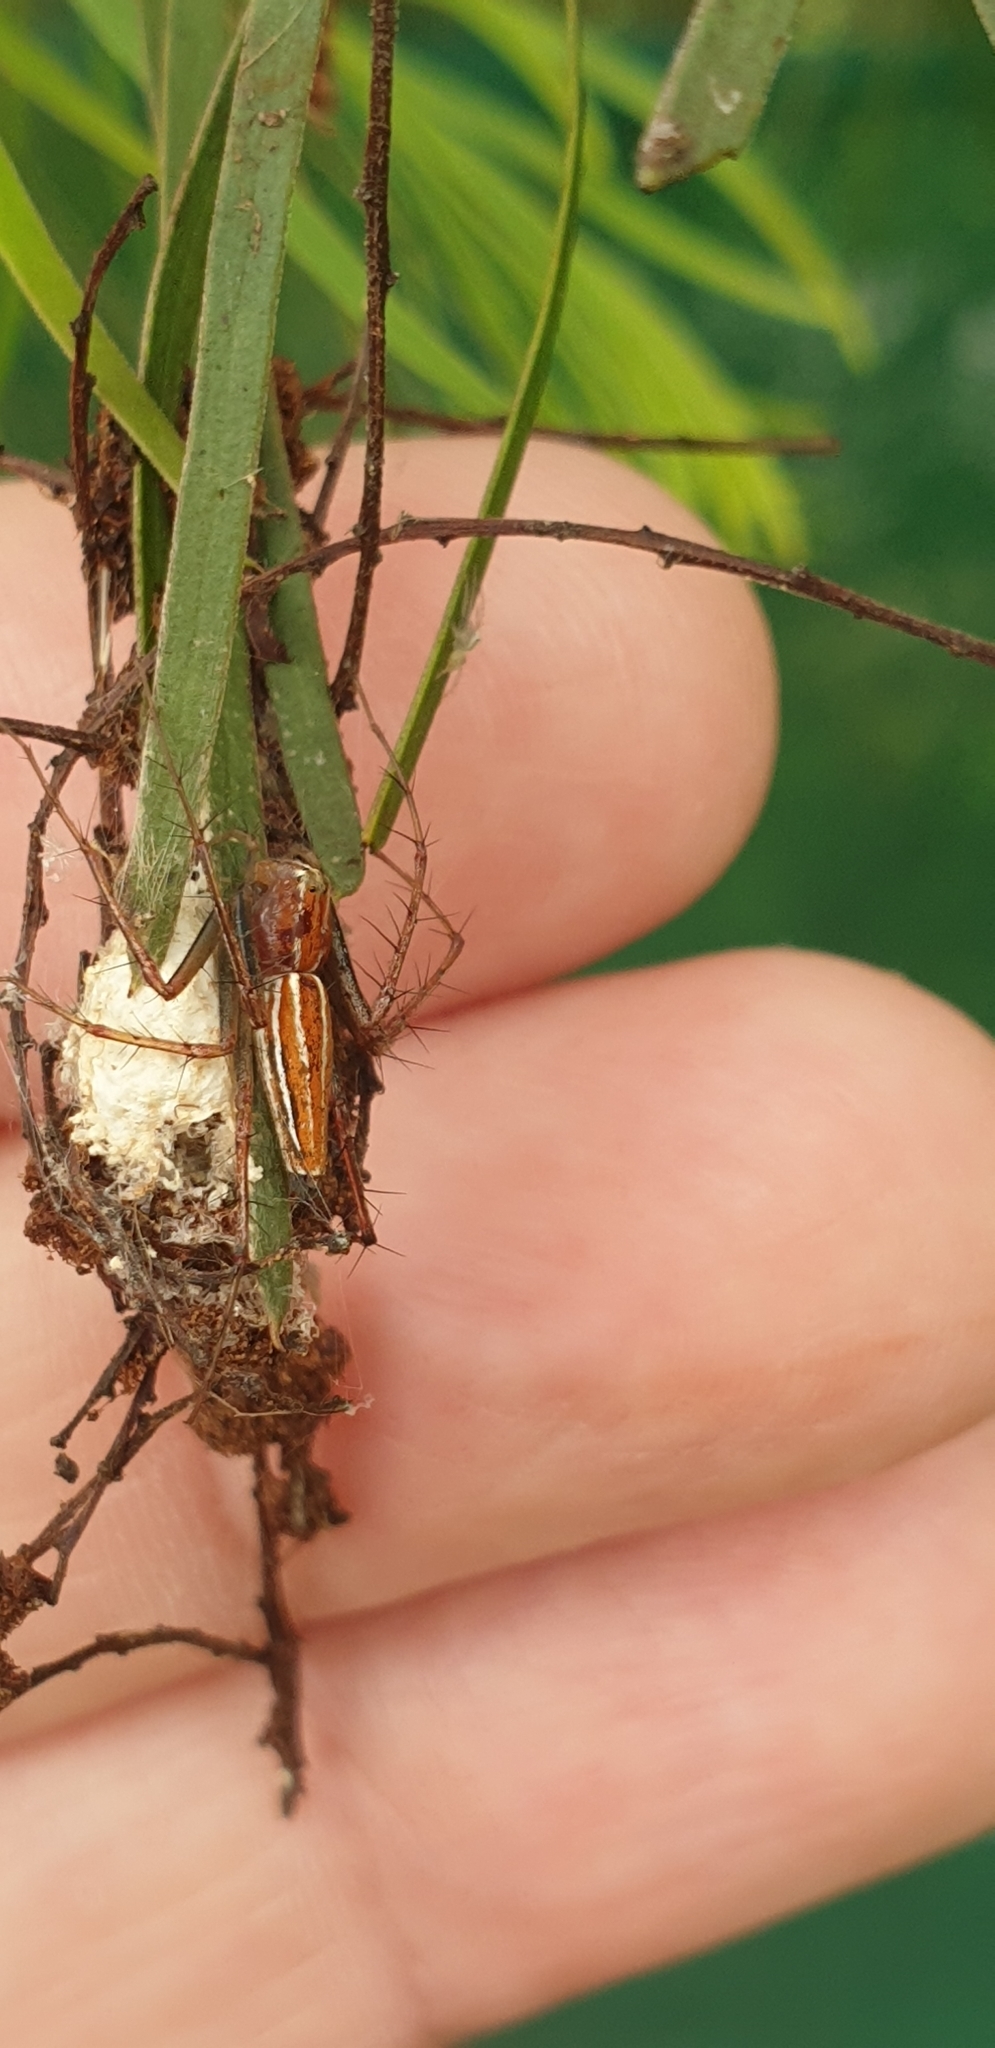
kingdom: Animalia
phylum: Arthropoda
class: Arachnida
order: Araneae
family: Oxyopidae
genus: Oxyopes
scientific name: Oxyopes macilentus
